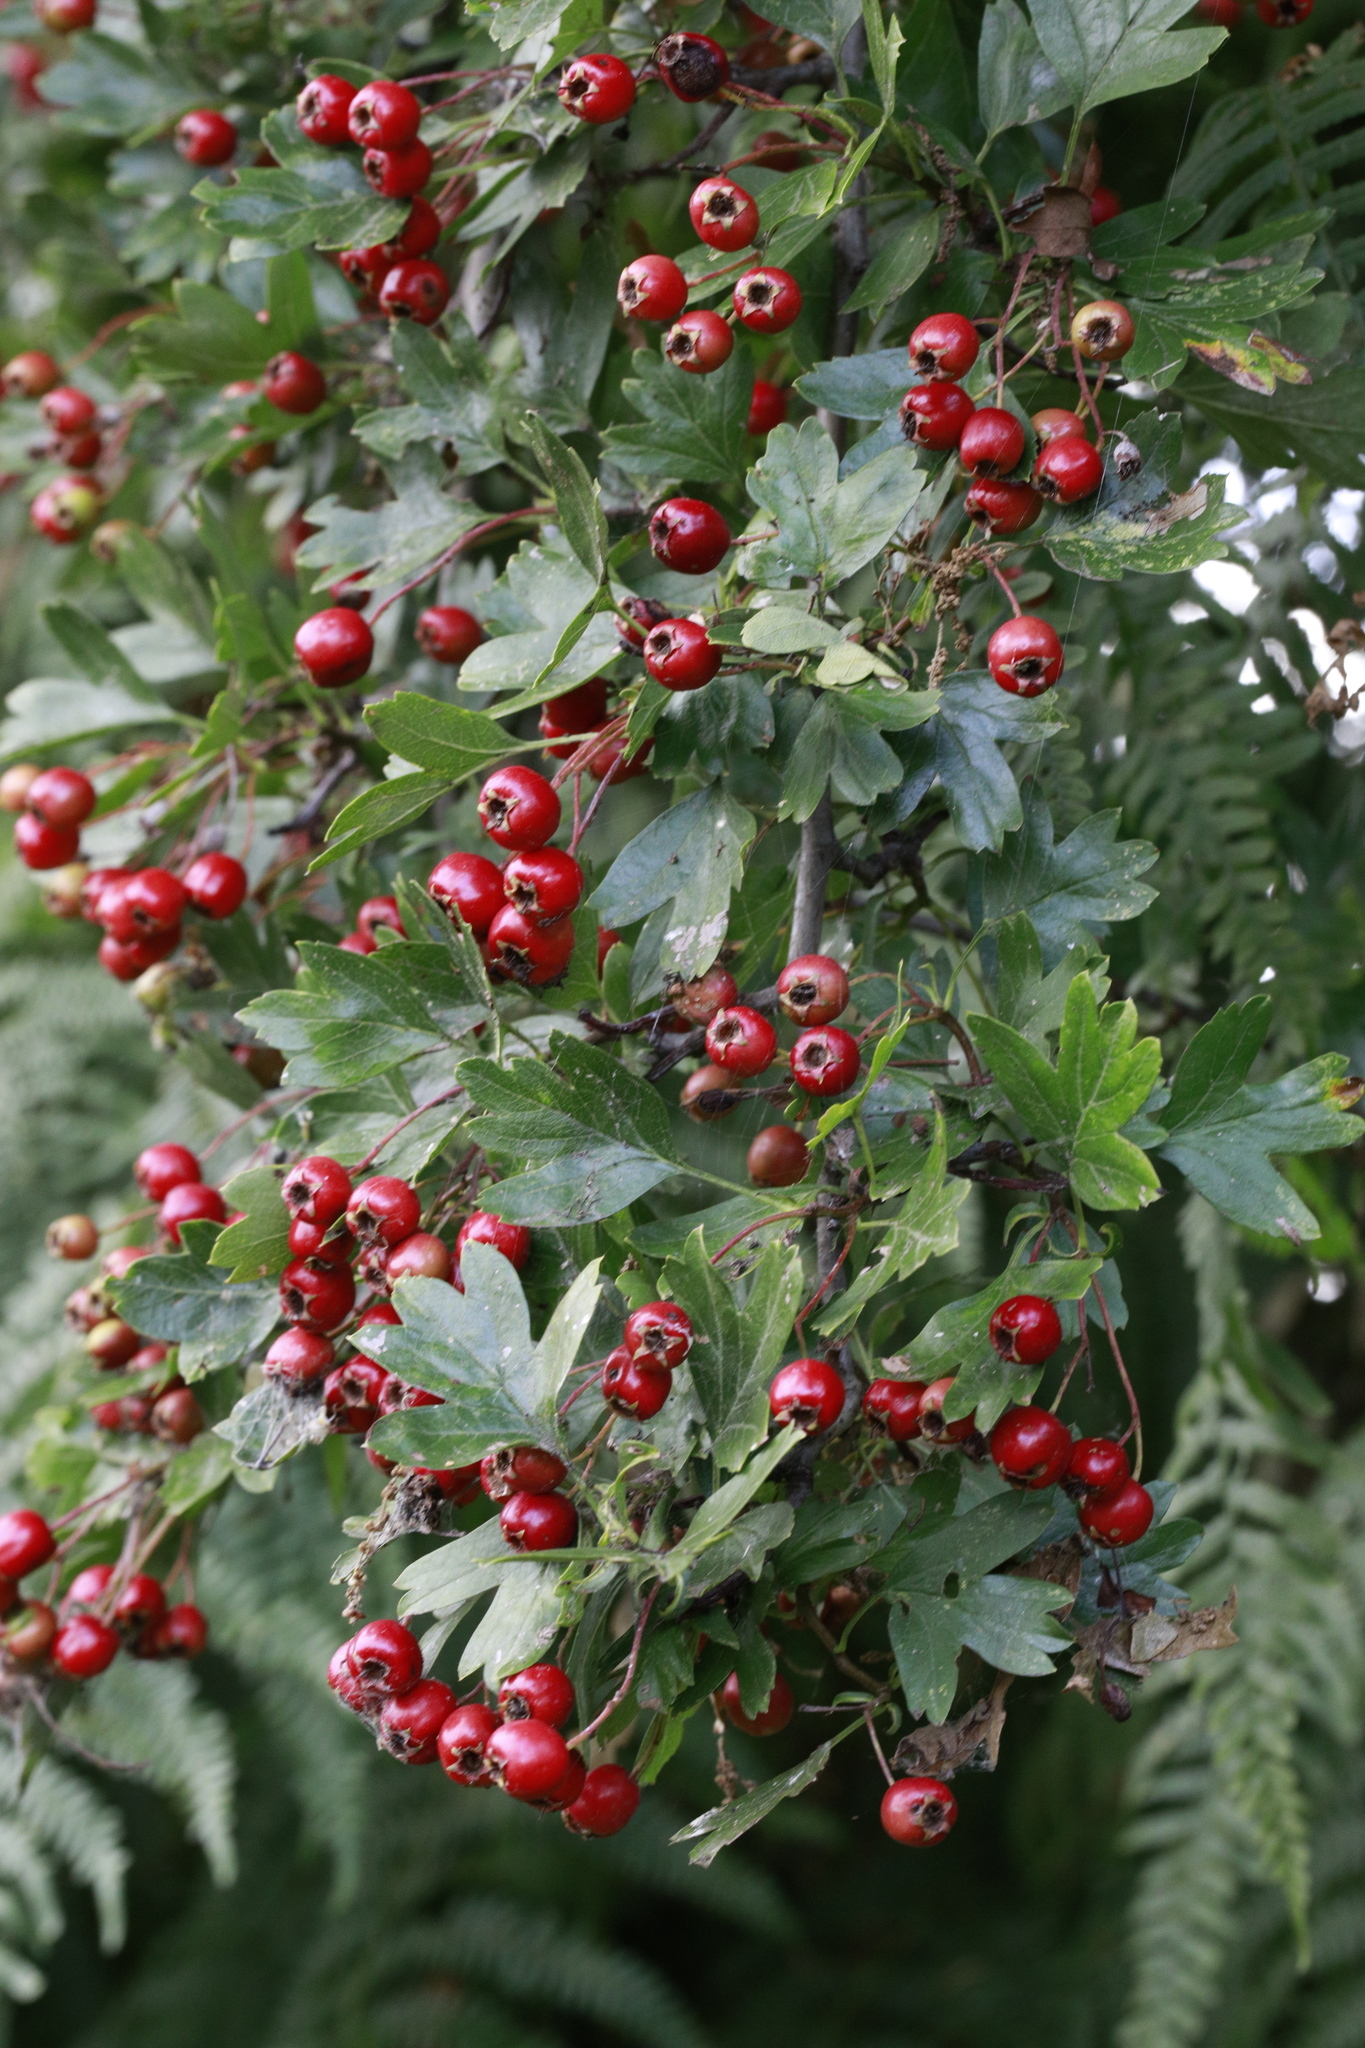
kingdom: Plantae
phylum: Tracheophyta
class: Magnoliopsida
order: Rosales
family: Rosaceae
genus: Crataegus
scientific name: Crataegus monogyna
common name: Hawthorn
